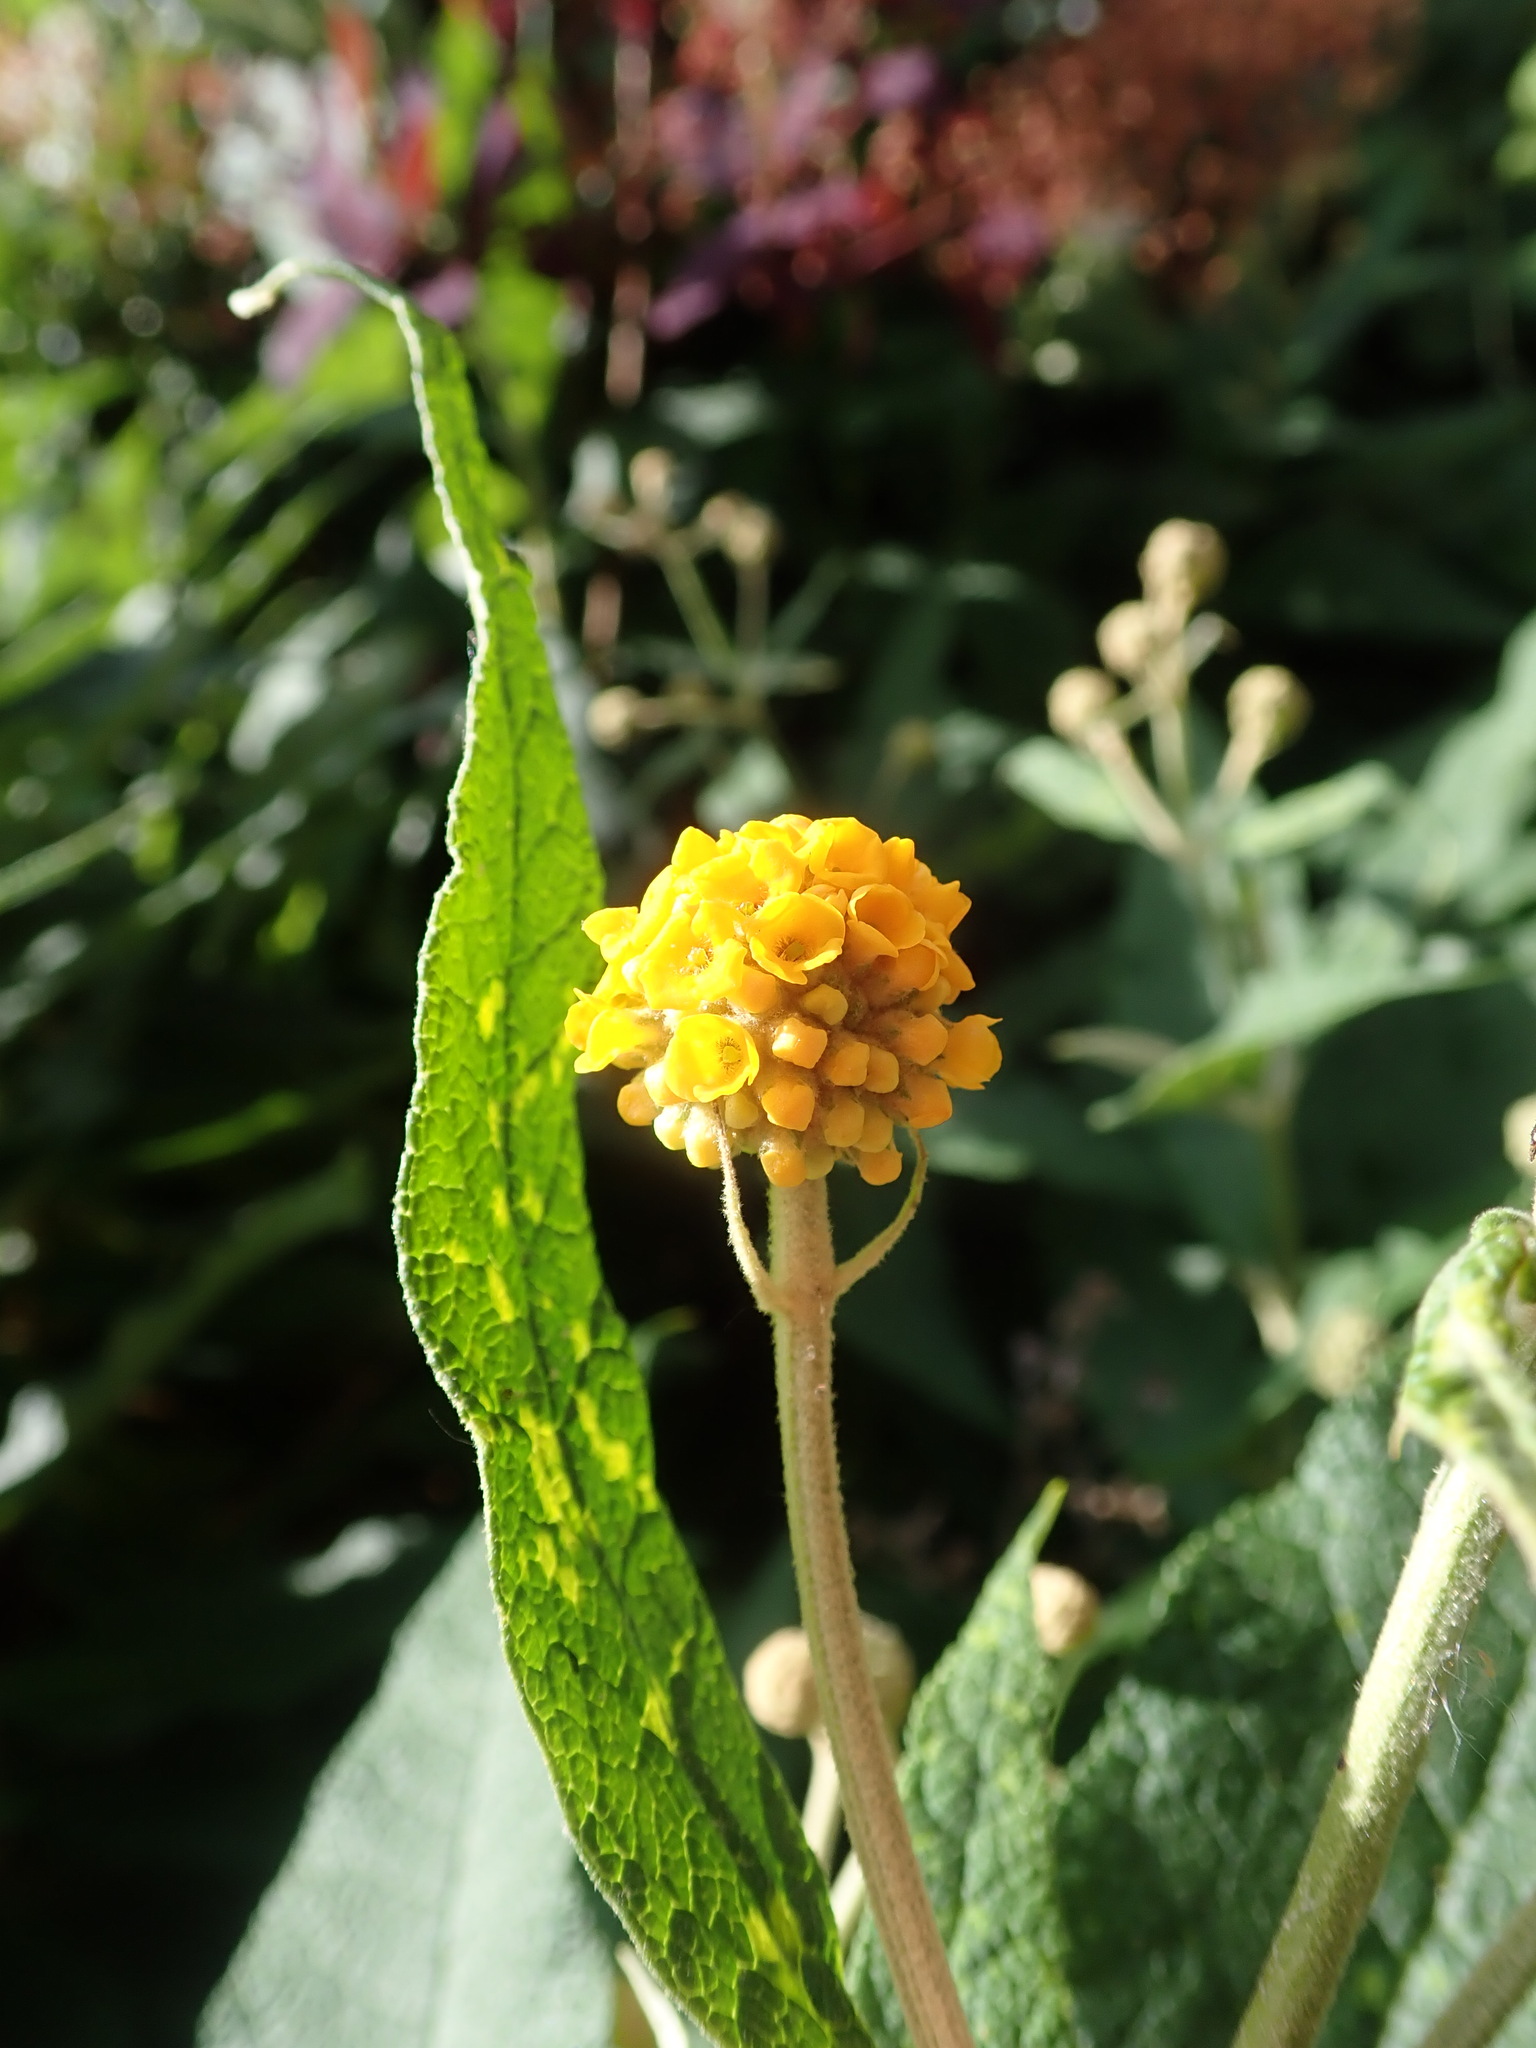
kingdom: Plantae
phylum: Tracheophyta
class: Magnoliopsida
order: Lamiales
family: Scrophulariaceae
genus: Buddleja
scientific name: Buddleja globosa
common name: Orange-ball-tree
